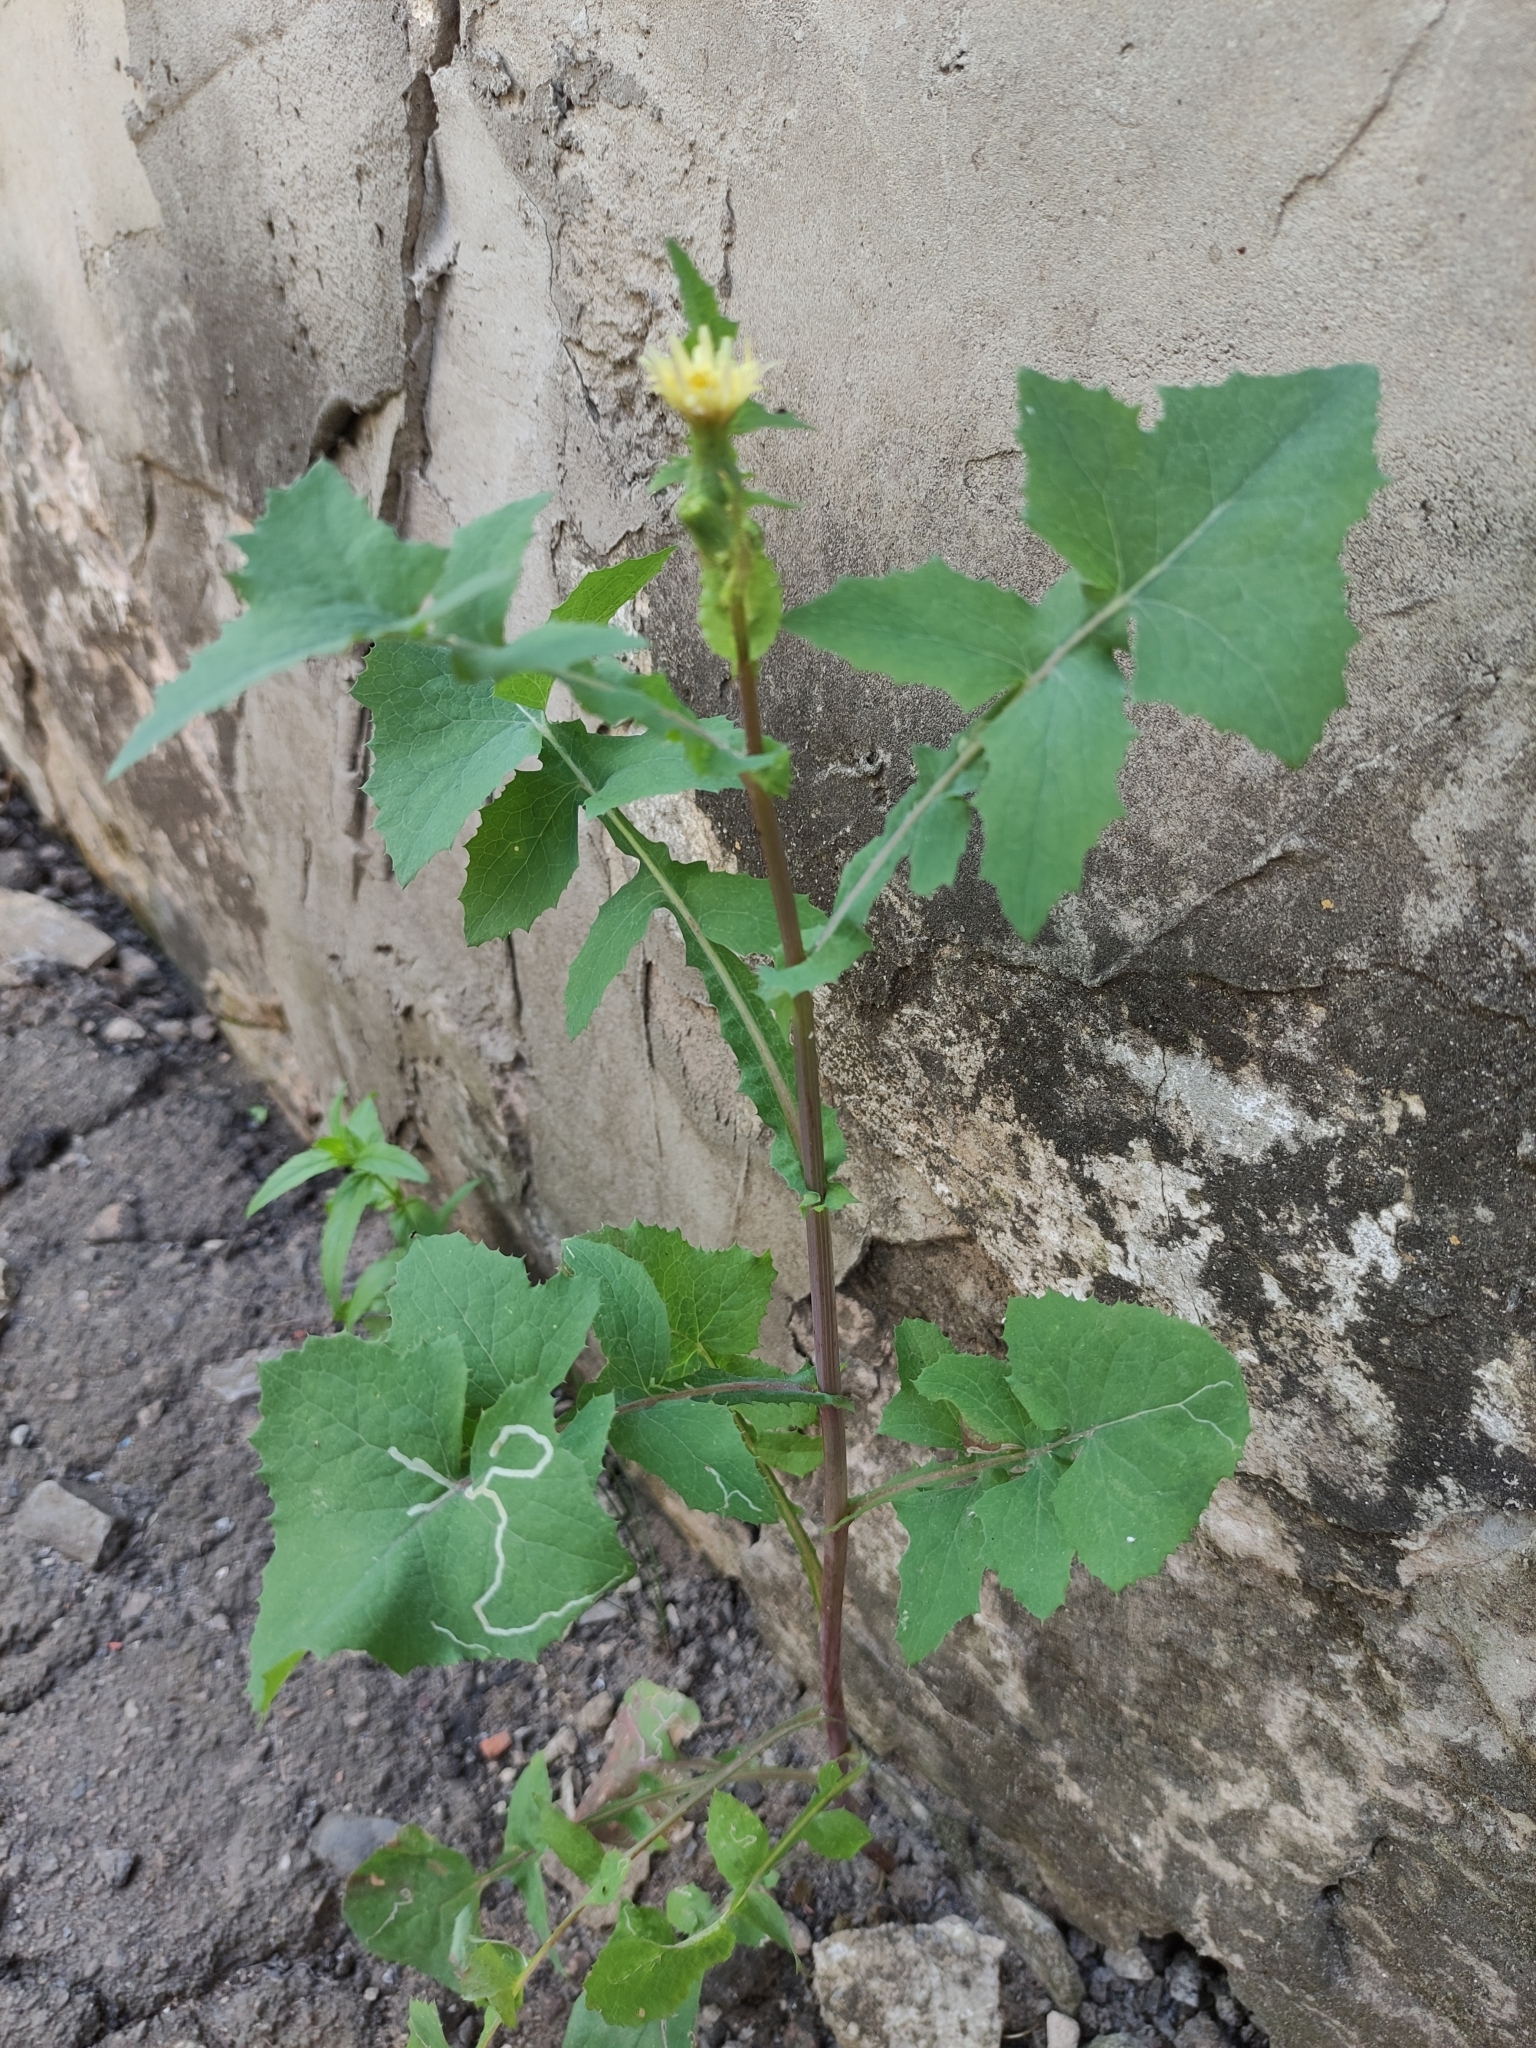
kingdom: Plantae
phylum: Tracheophyta
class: Magnoliopsida
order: Asterales
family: Asteraceae
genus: Sonchus
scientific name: Sonchus oleraceus
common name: Common sowthistle
